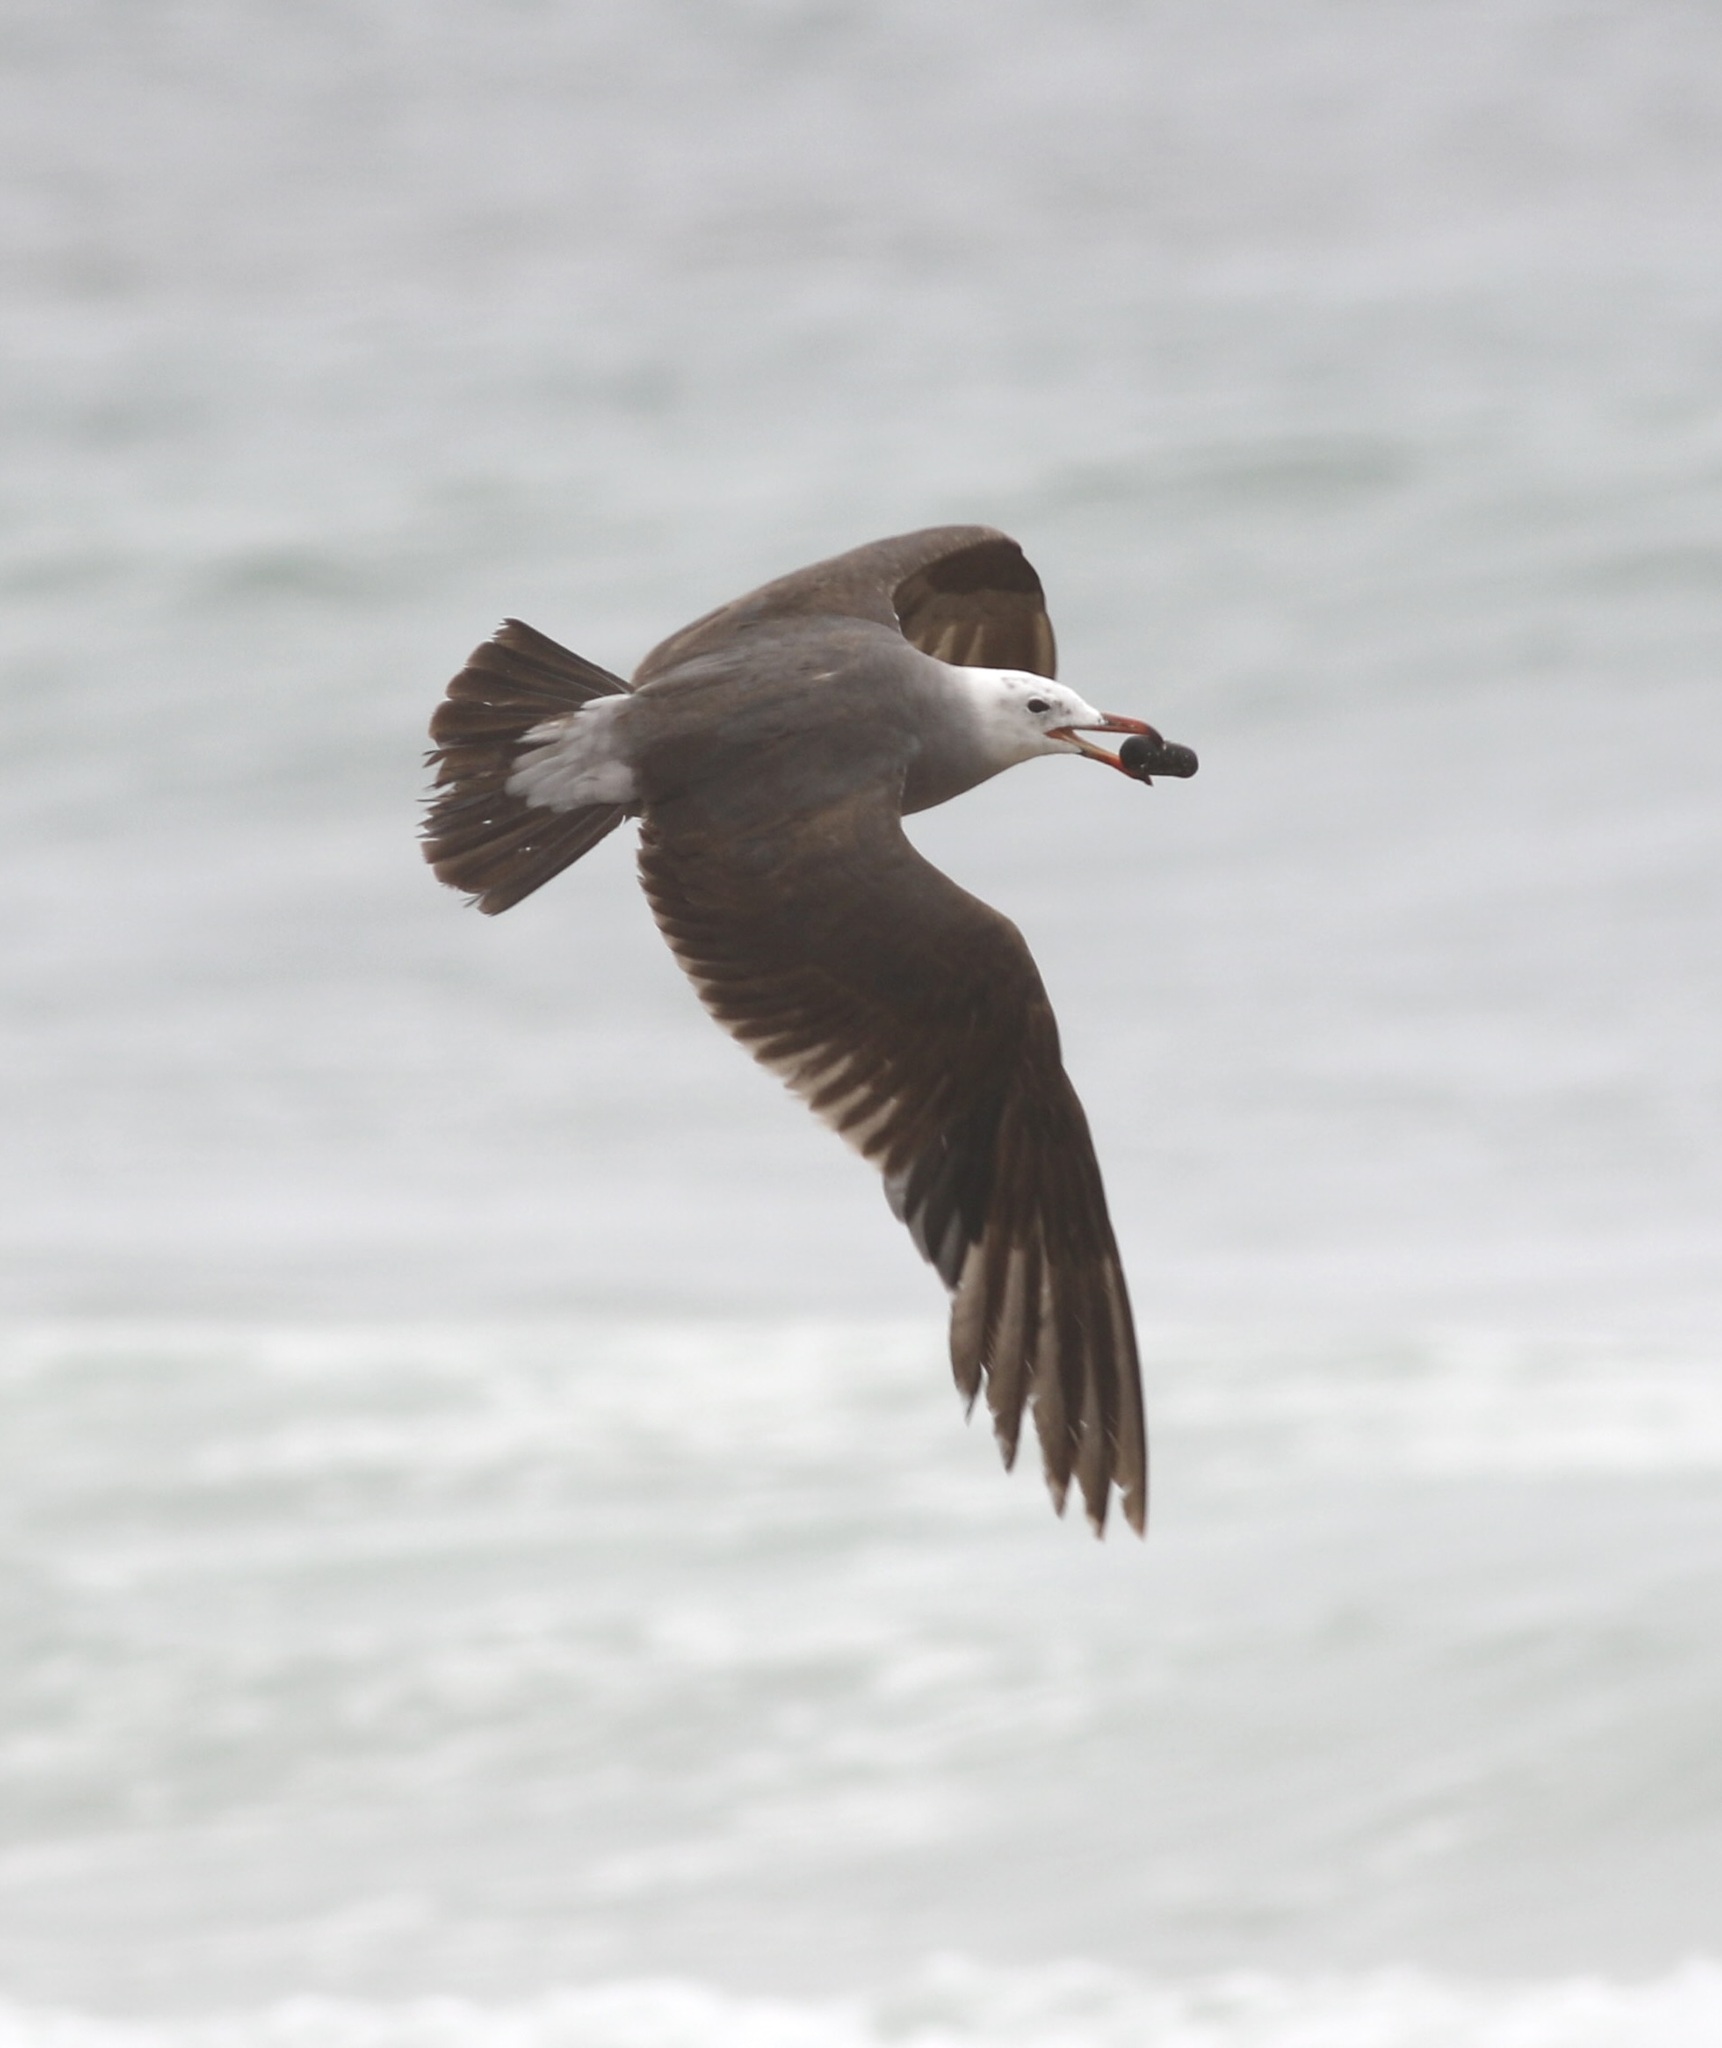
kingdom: Animalia
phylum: Chordata
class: Aves
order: Charadriiformes
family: Laridae
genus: Larus
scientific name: Larus heermanni
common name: Heermann's gull
